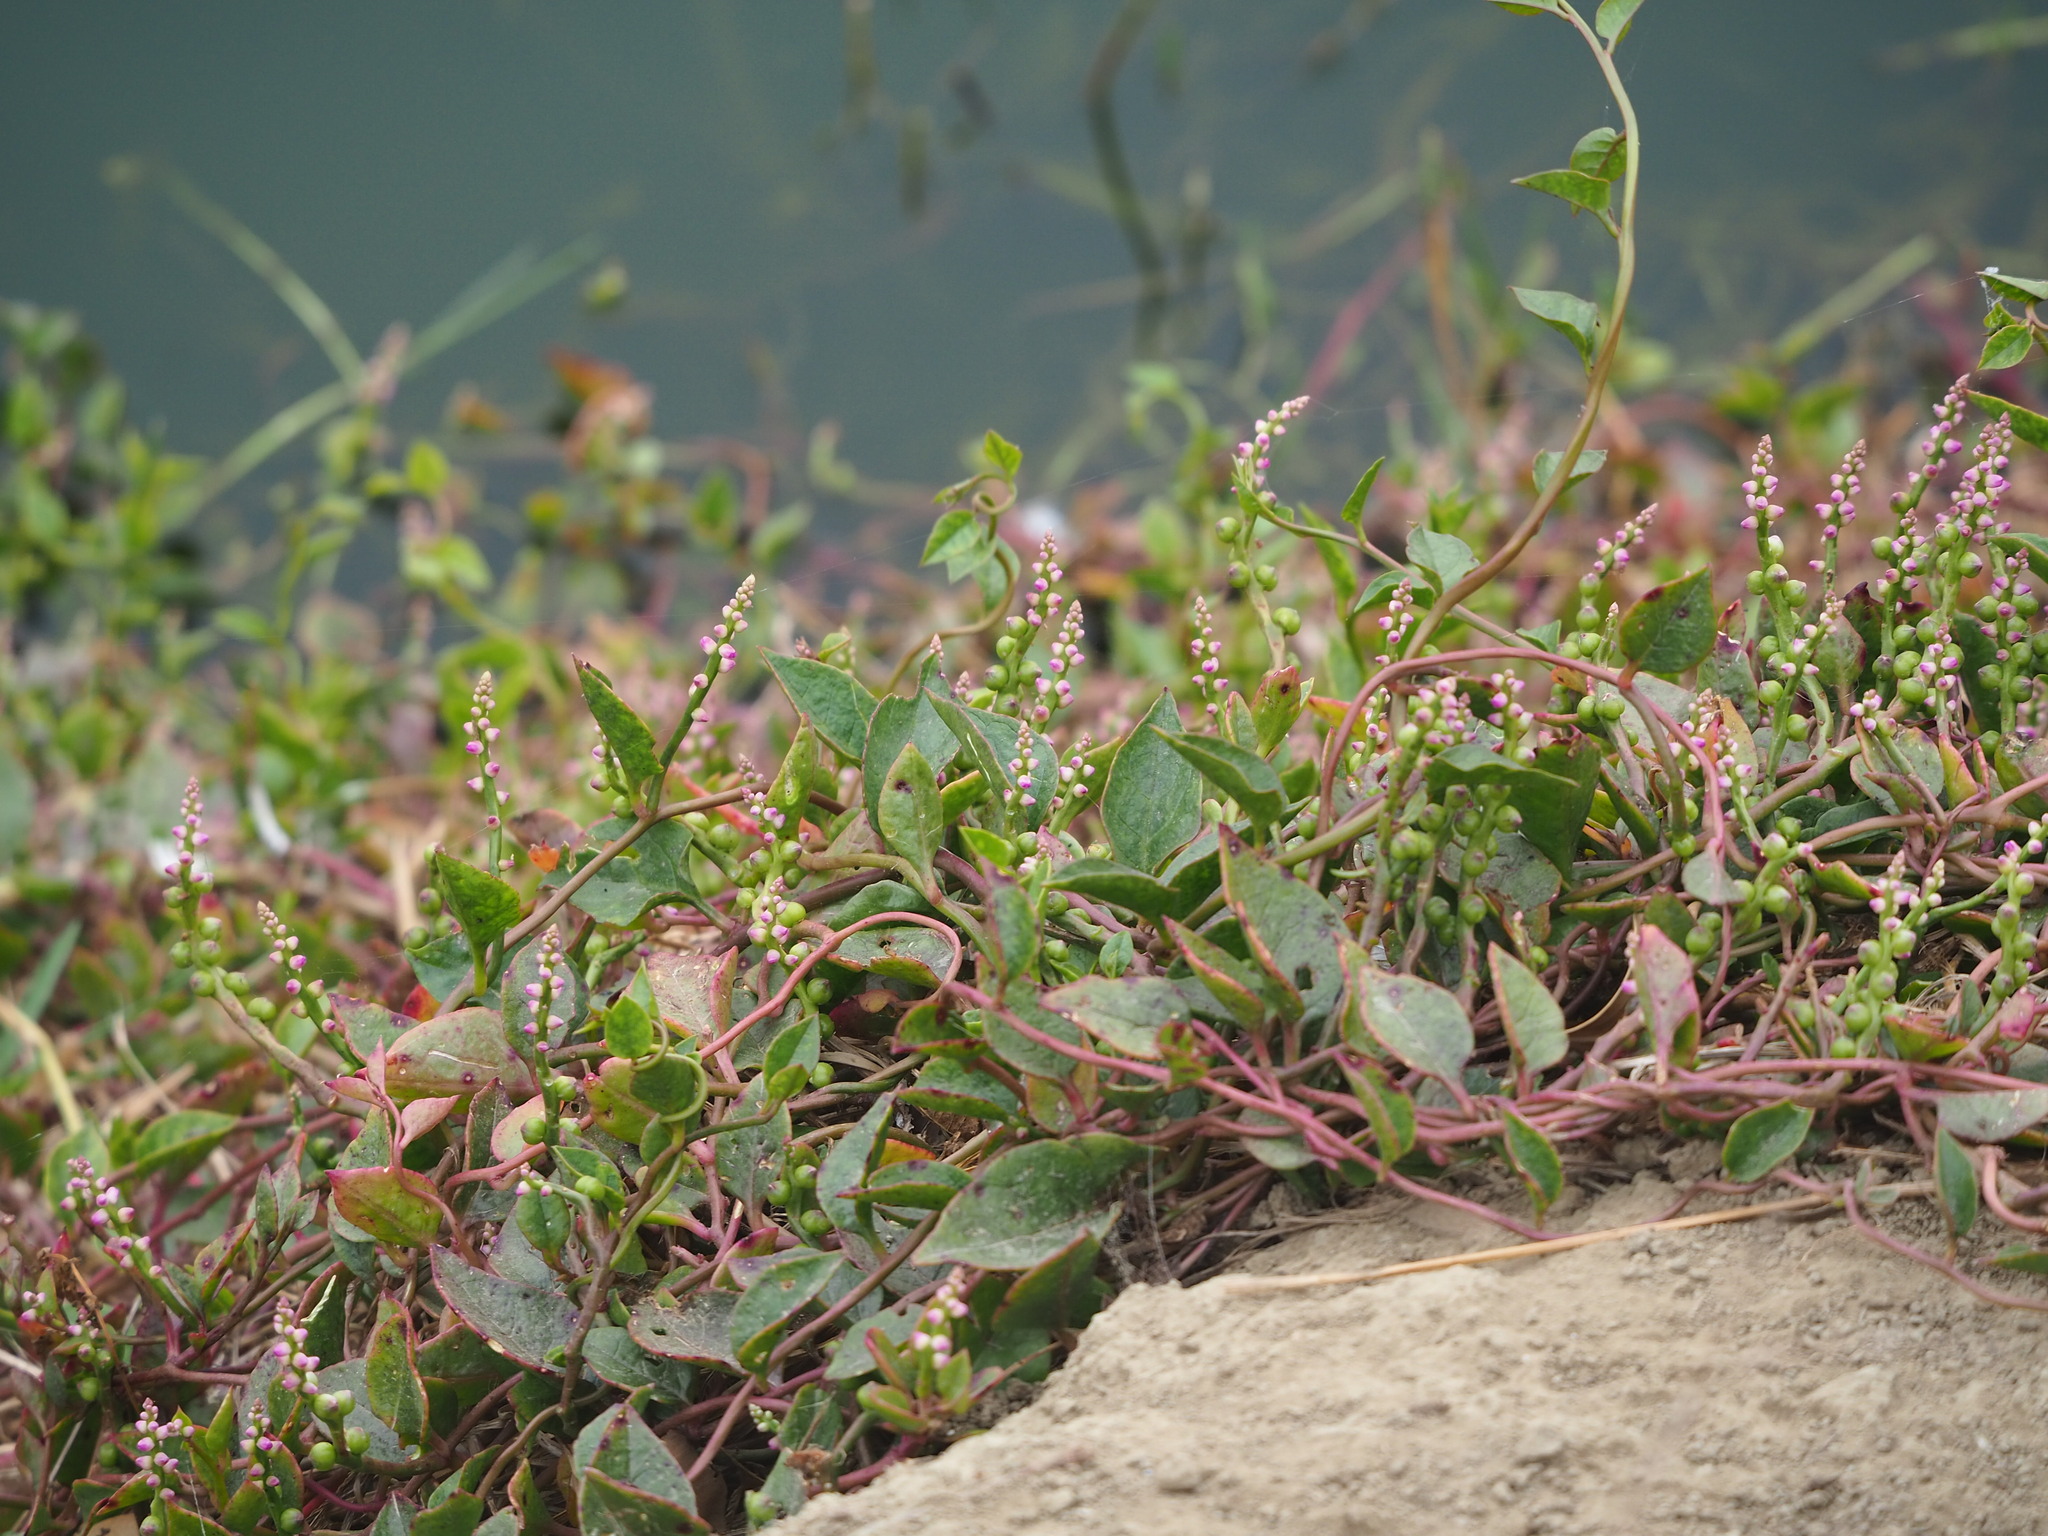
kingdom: Plantae
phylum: Tracheophyta
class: Magnoliopsida
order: Caryophyllales
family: Basellaceae
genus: Basella
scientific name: Basella alba
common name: Indian spinach
